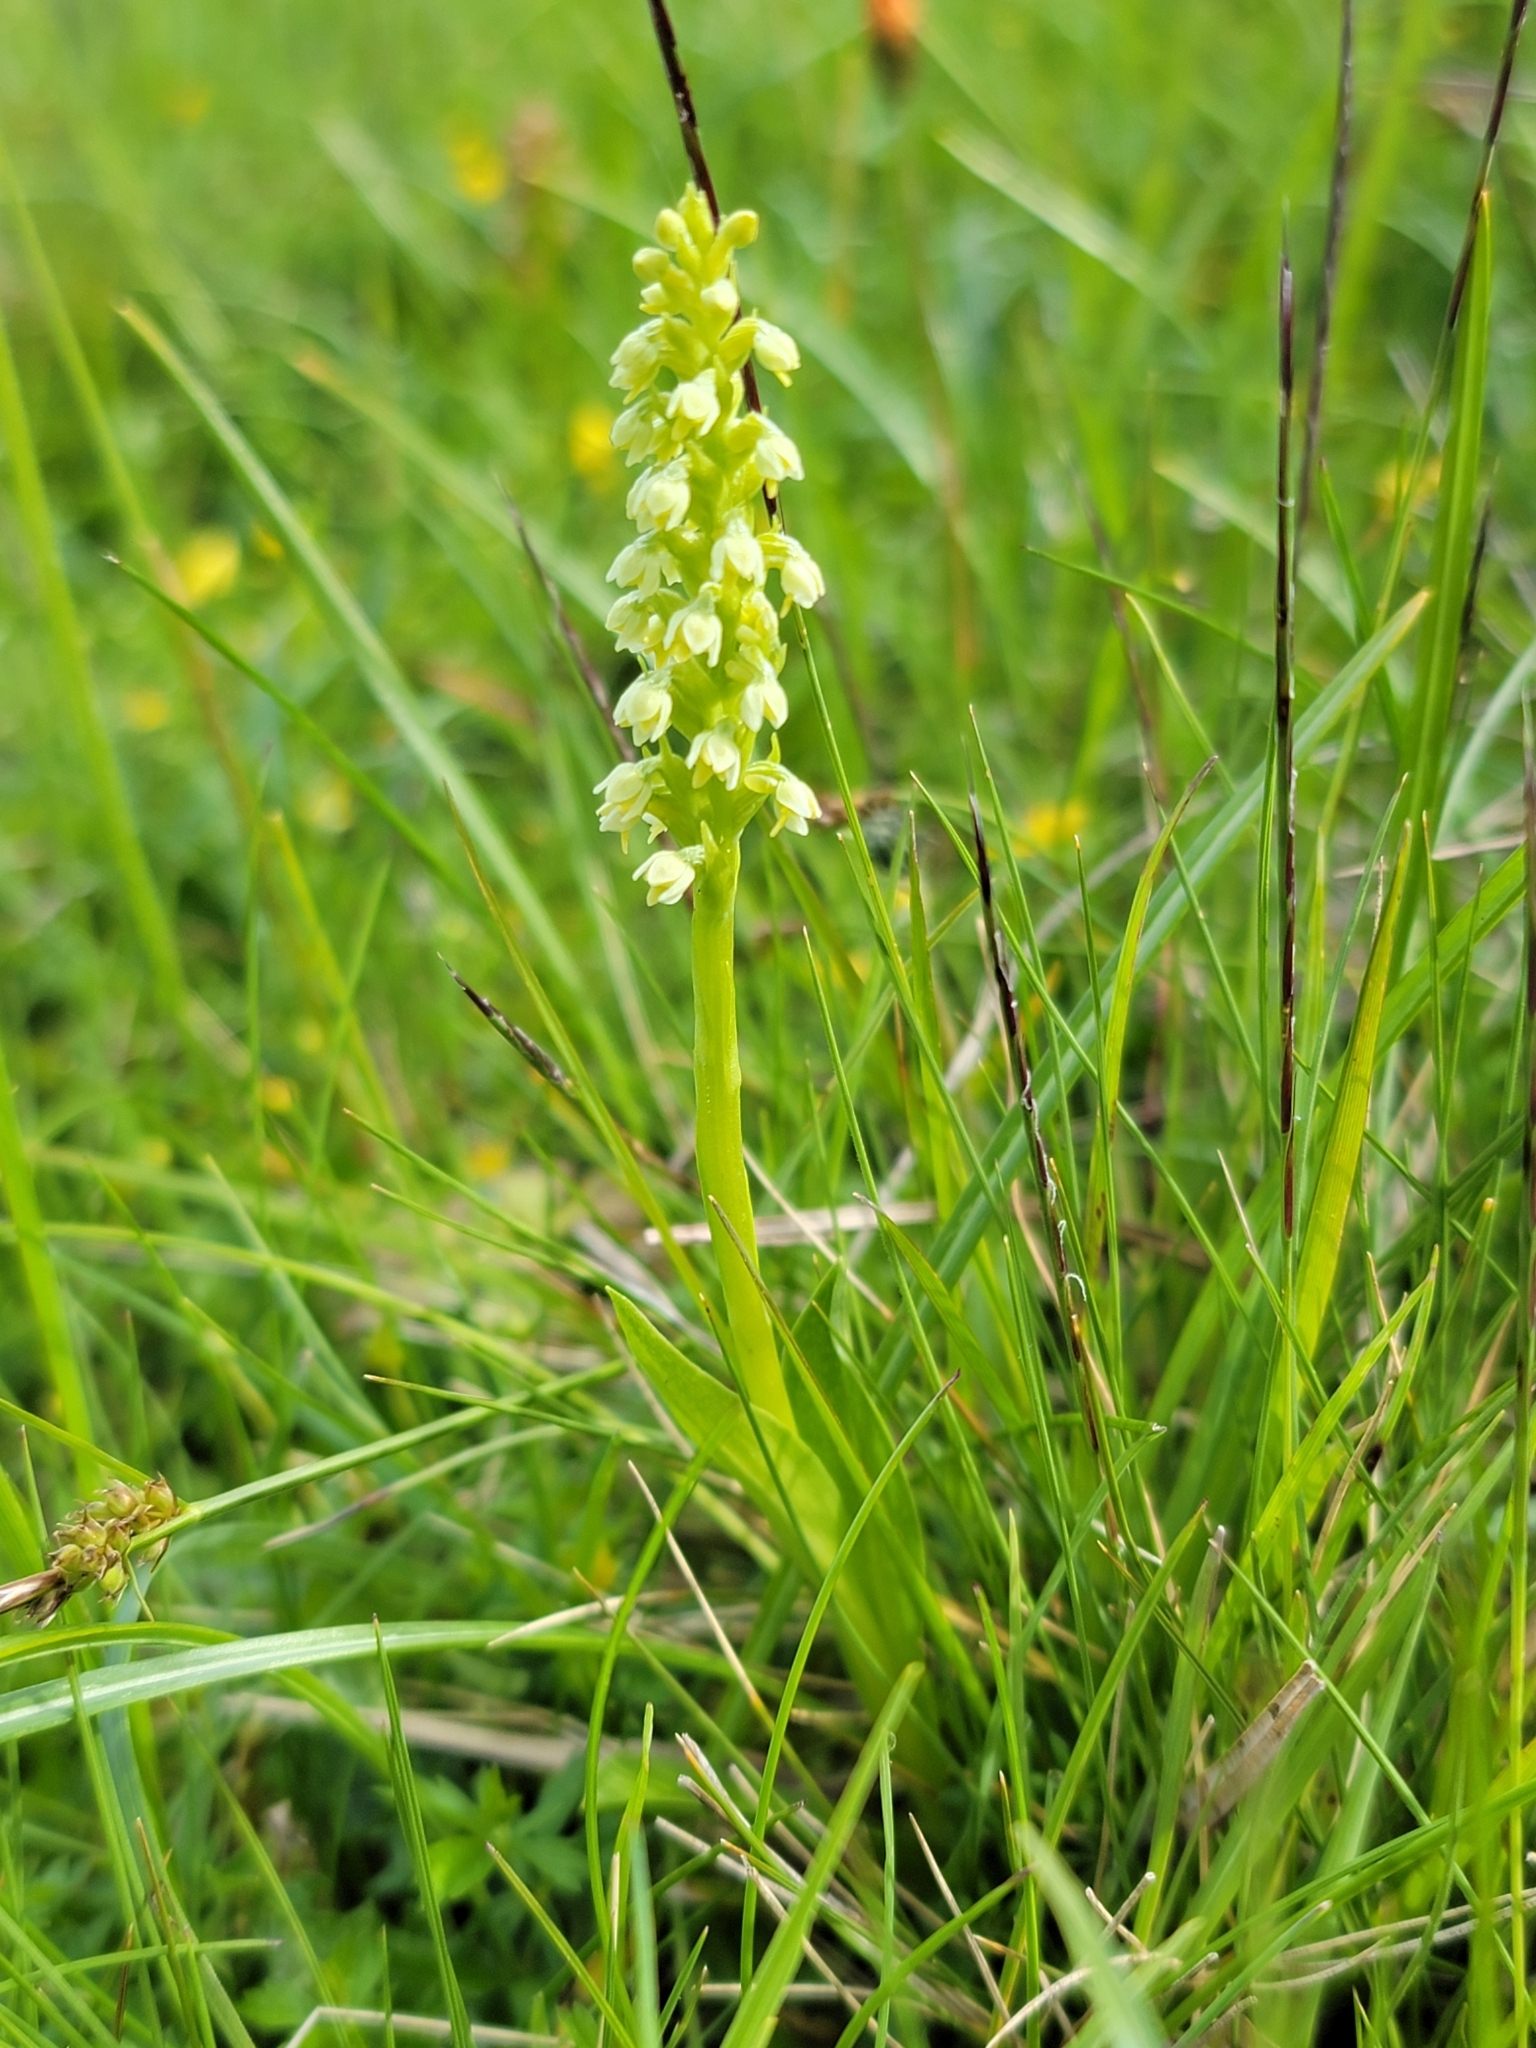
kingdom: Plantae
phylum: Tracheophyta
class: Liliopsida
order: Asparagales
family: Orchidaceae
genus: Pseudorchis
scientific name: Pseudorchis albida
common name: Small-white orchid
